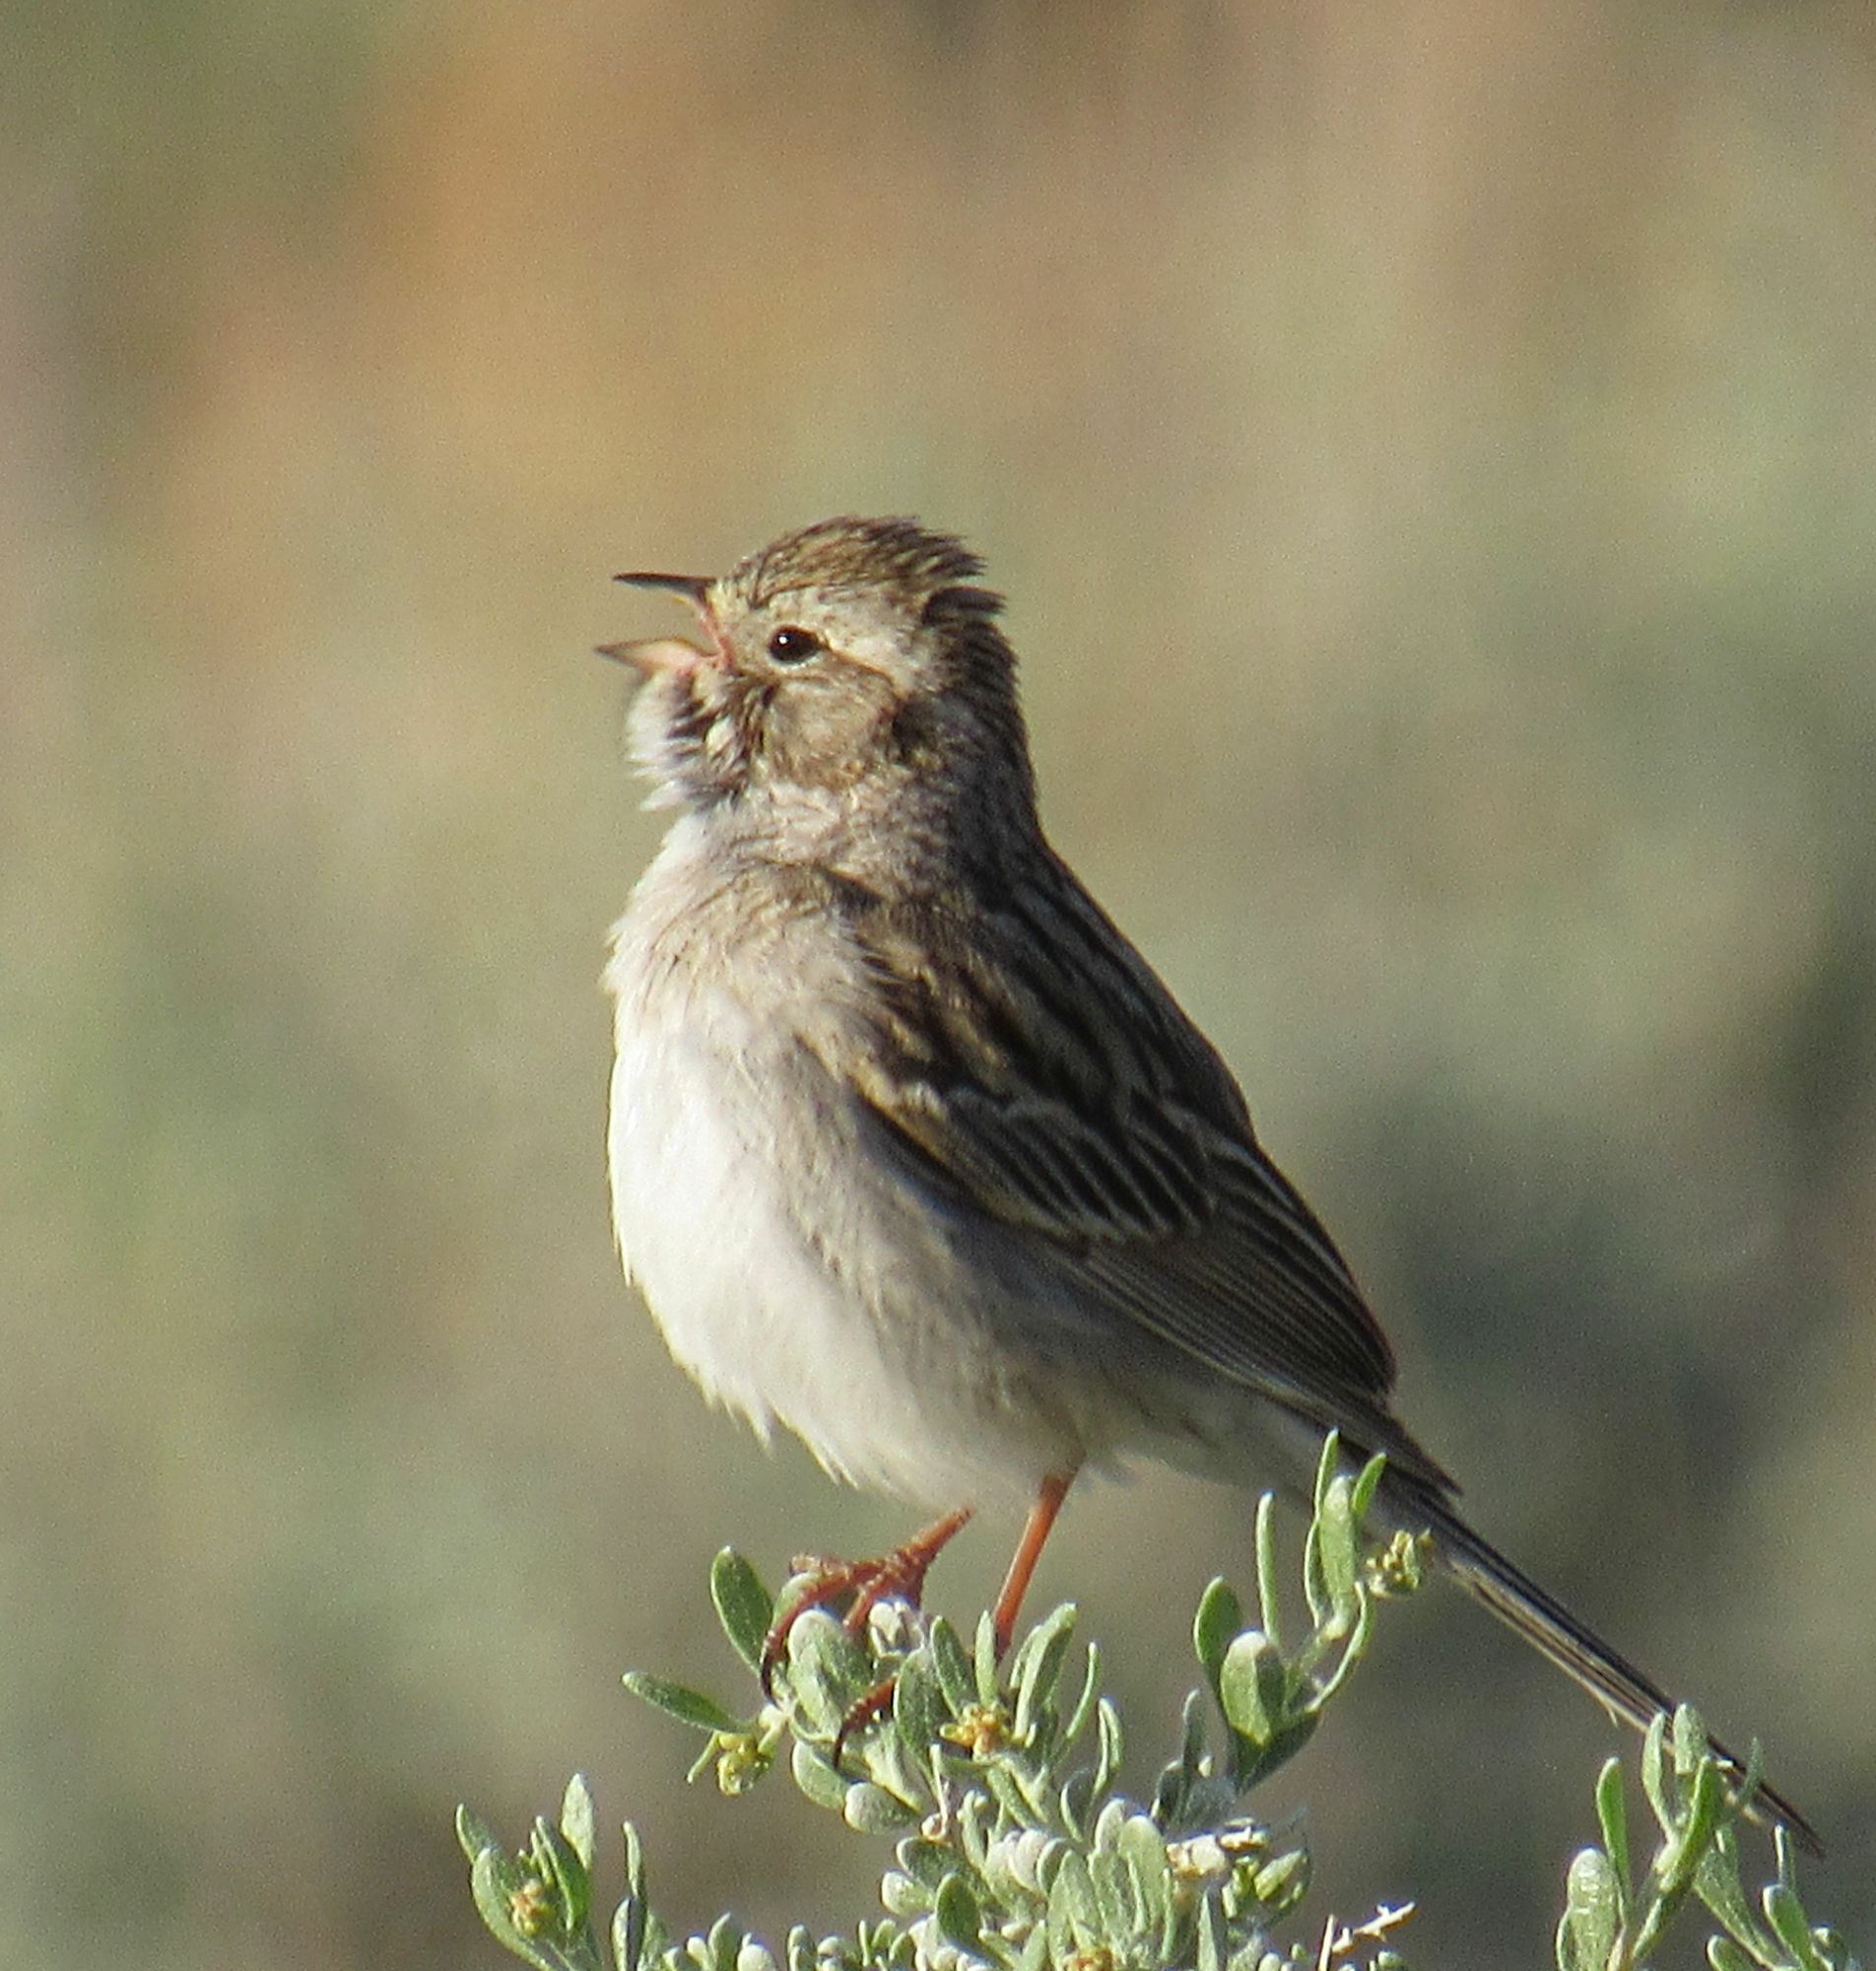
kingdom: Animalia
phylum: Chordata
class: Aves
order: Passeriformes
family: Passerellidae
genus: Spizella
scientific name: Spizella breweri
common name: Brewer's sparrow
